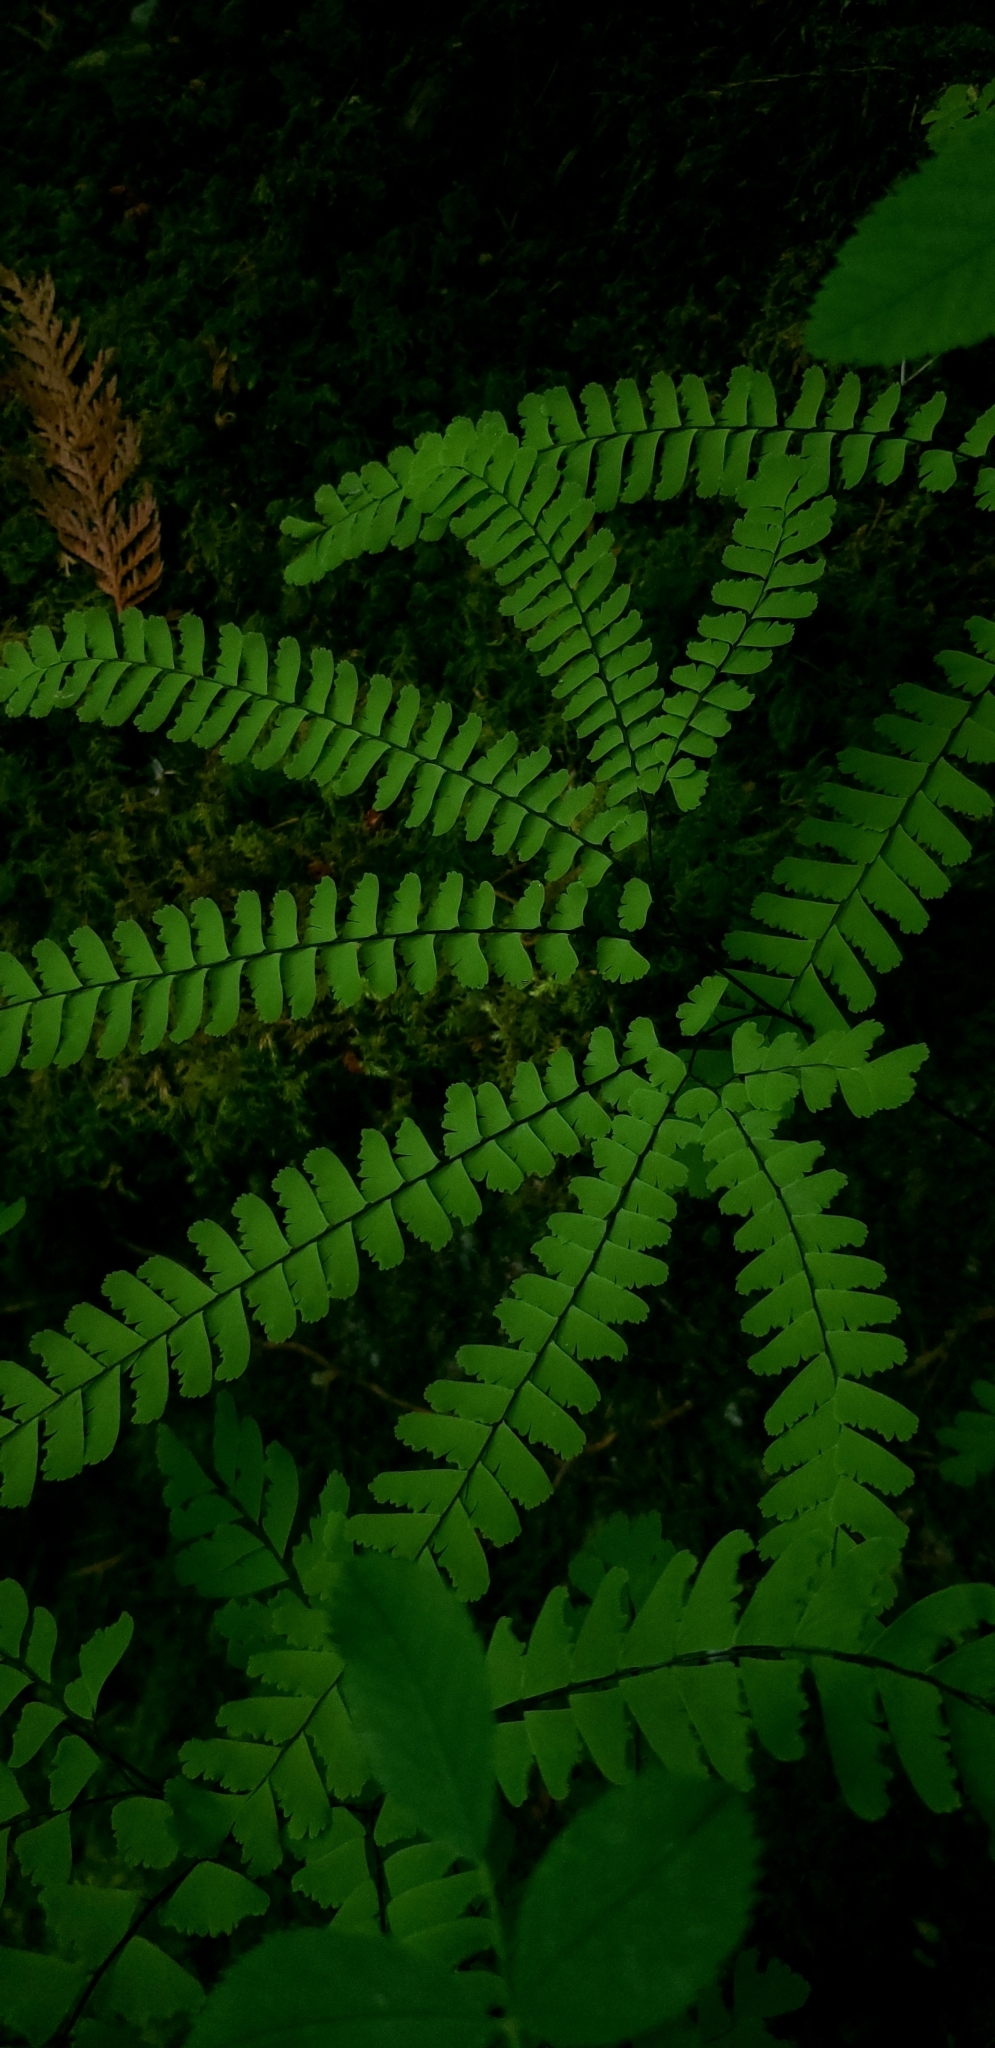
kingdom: Plantae
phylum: Tracheophyta
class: Polypodiopsida
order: Polypodiales
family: Pteridaceae
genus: Adiantum
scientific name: Adiantum aleuticum
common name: Aleutian maidenhair fern
